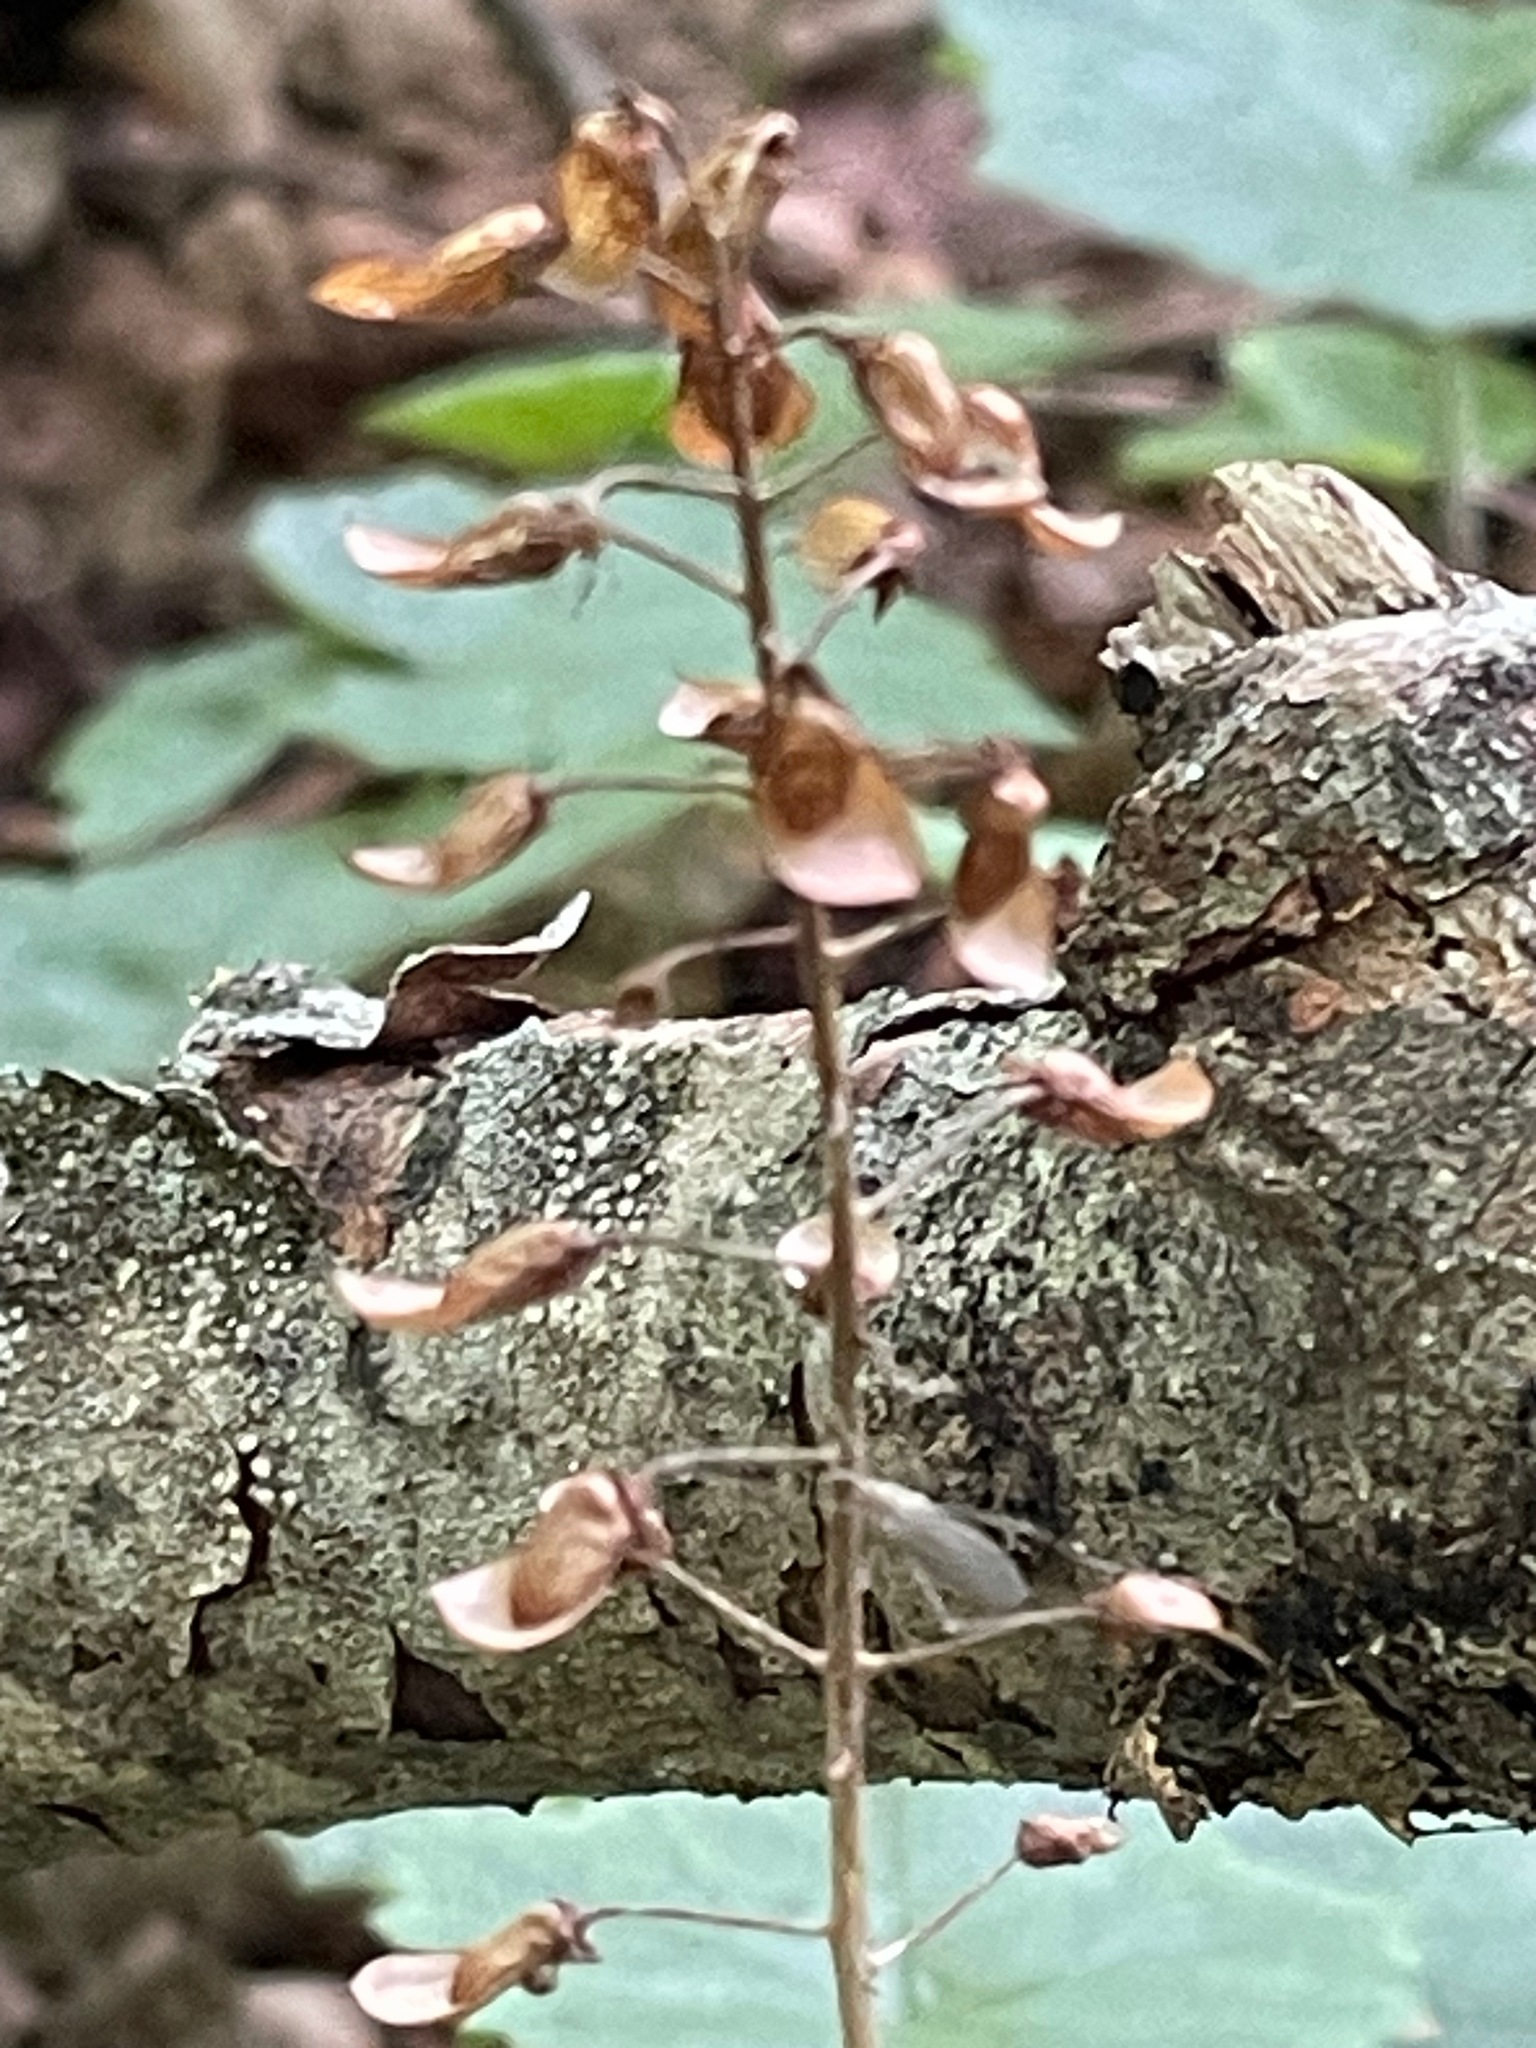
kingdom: Plantae
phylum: Tracheophyta
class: Magnoliopsida
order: Saxifragales
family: Saxifragaceae
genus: Tiarella
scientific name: Tiarella stolonifera
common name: Stoloniferous foamflower
